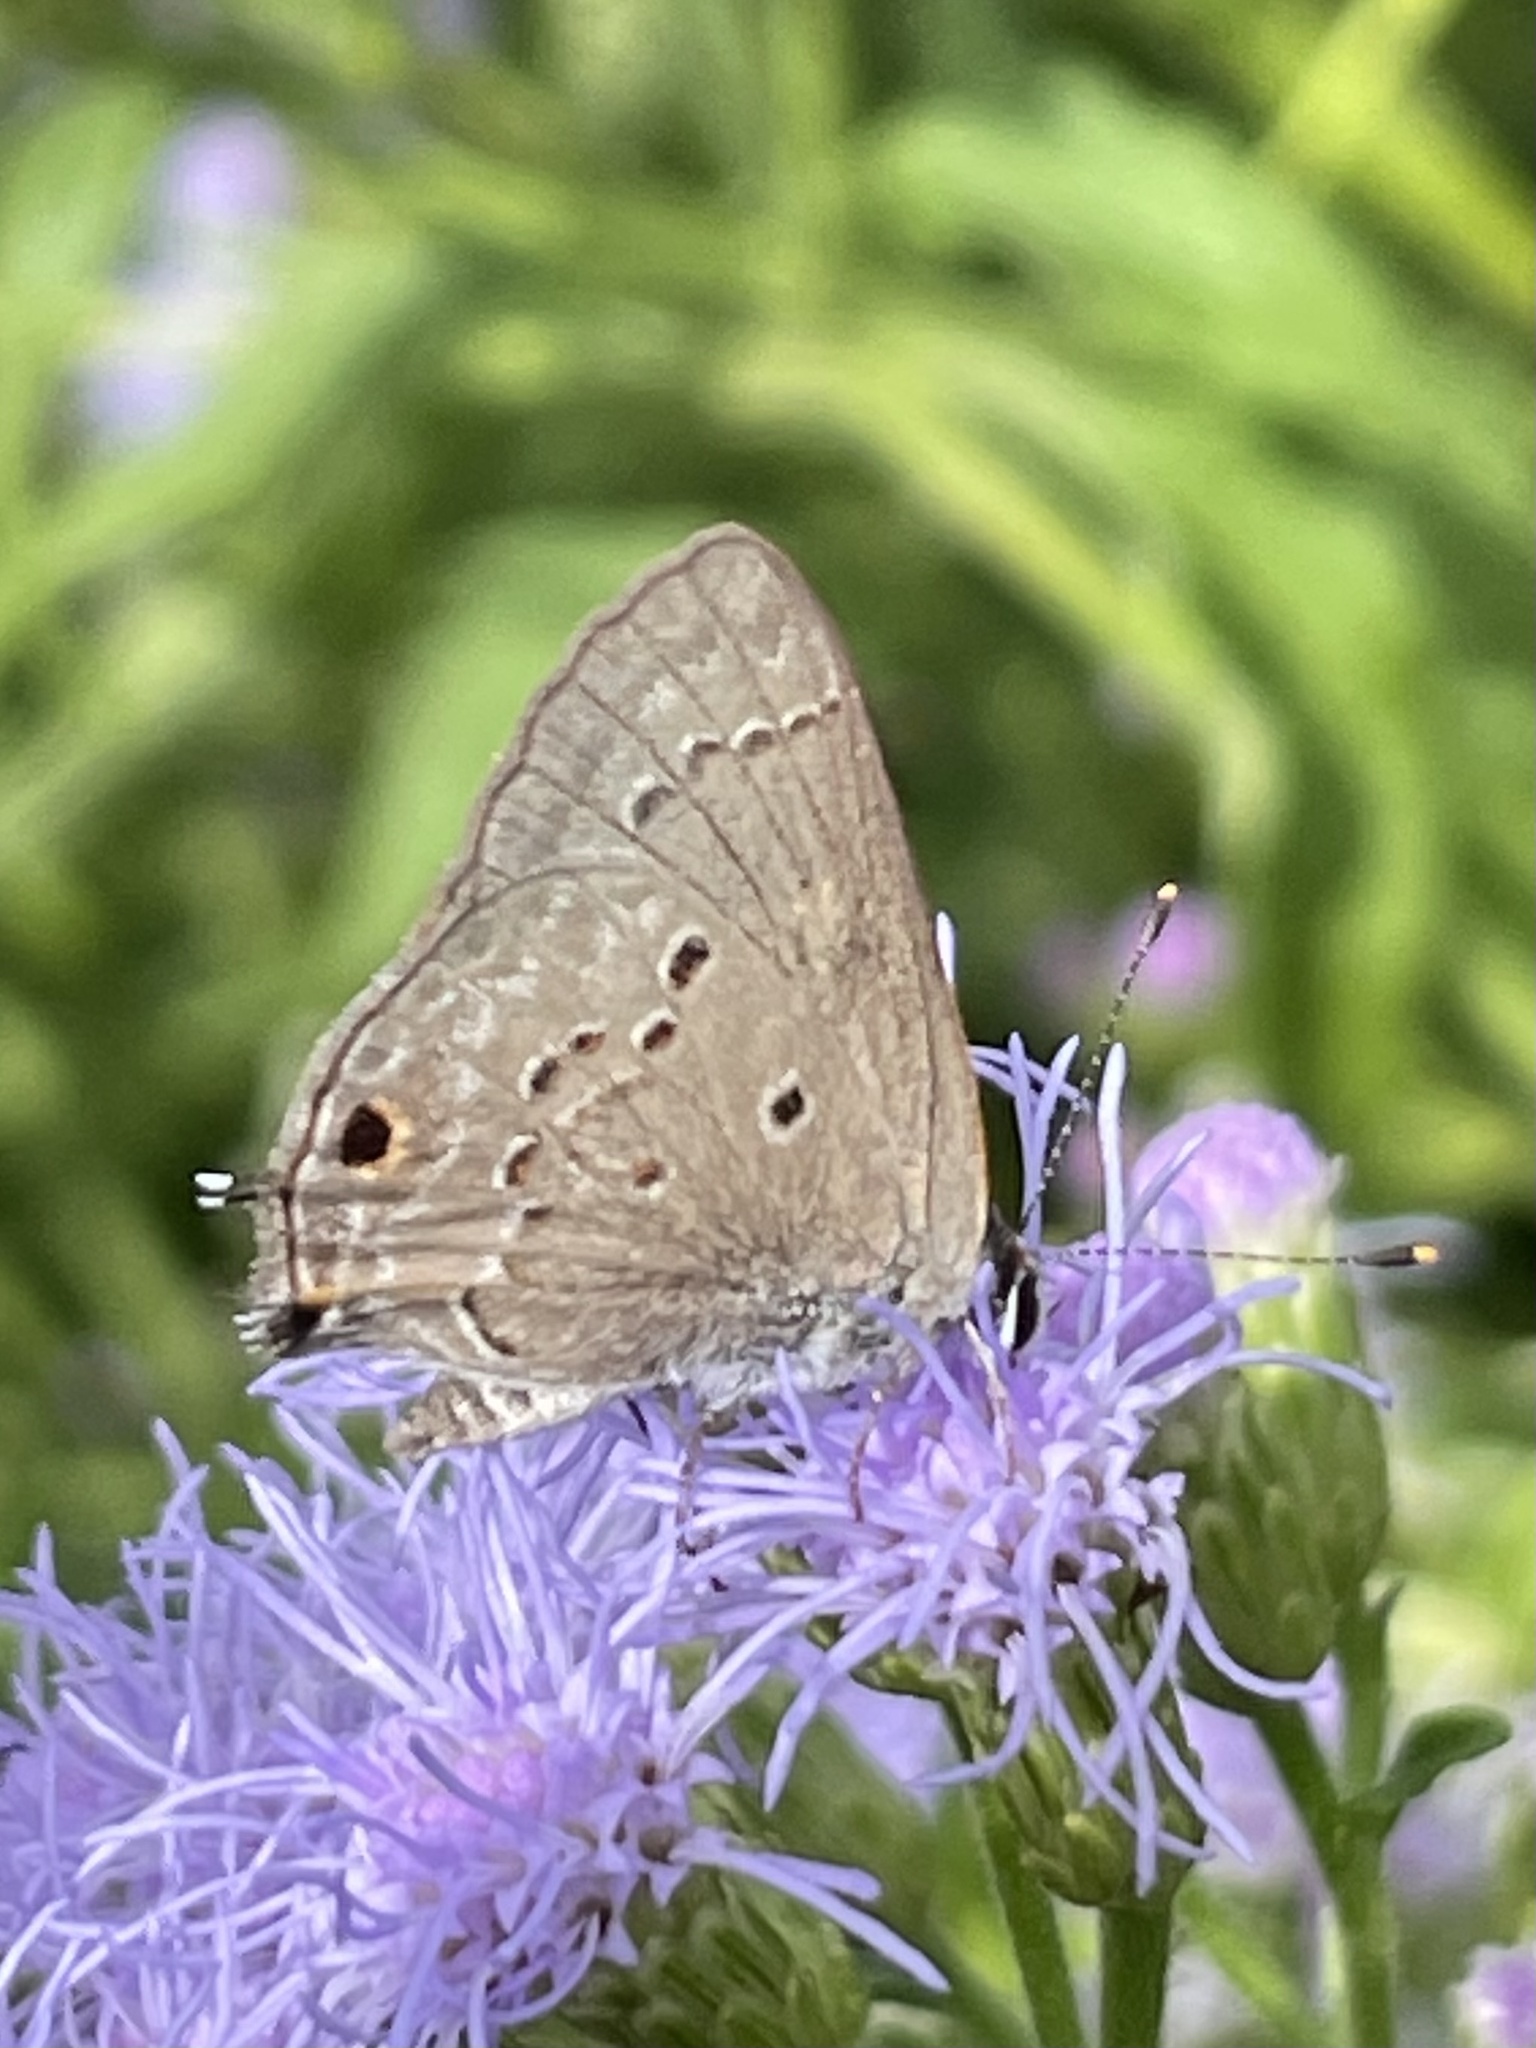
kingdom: Animalia
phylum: Arthropoda
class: Insecta
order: Lepidoptera
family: Lycaenidae
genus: Callicista
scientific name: Callicista columella
